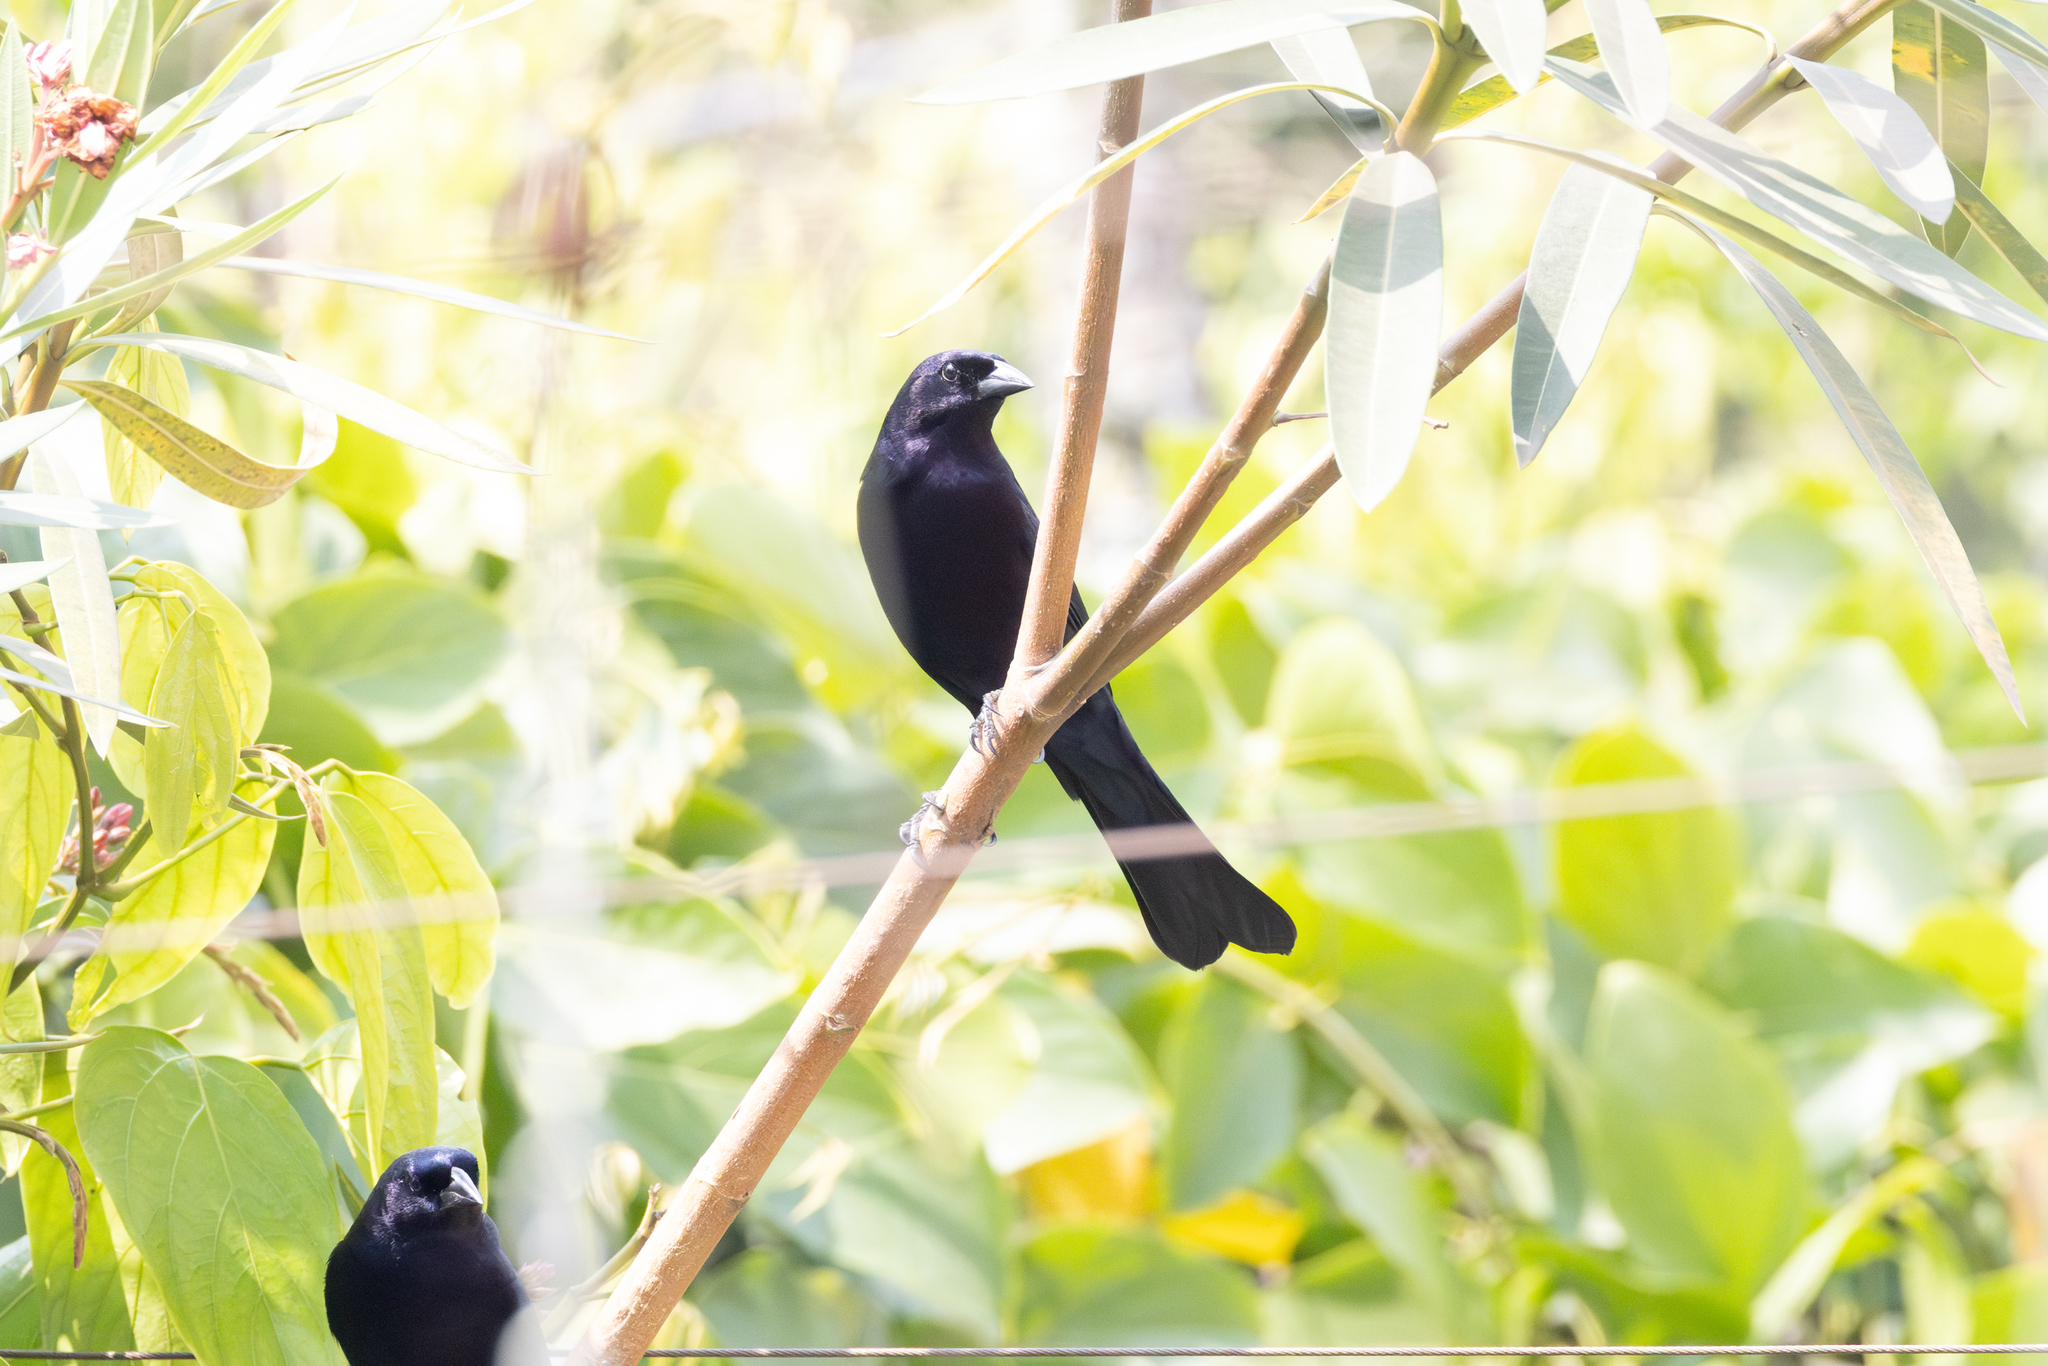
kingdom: Animalia
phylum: Chordata
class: Aves
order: Passeriformes
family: Icteridae
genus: Molothrus
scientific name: Molothrus bonariensis
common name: Shiny cowbird
